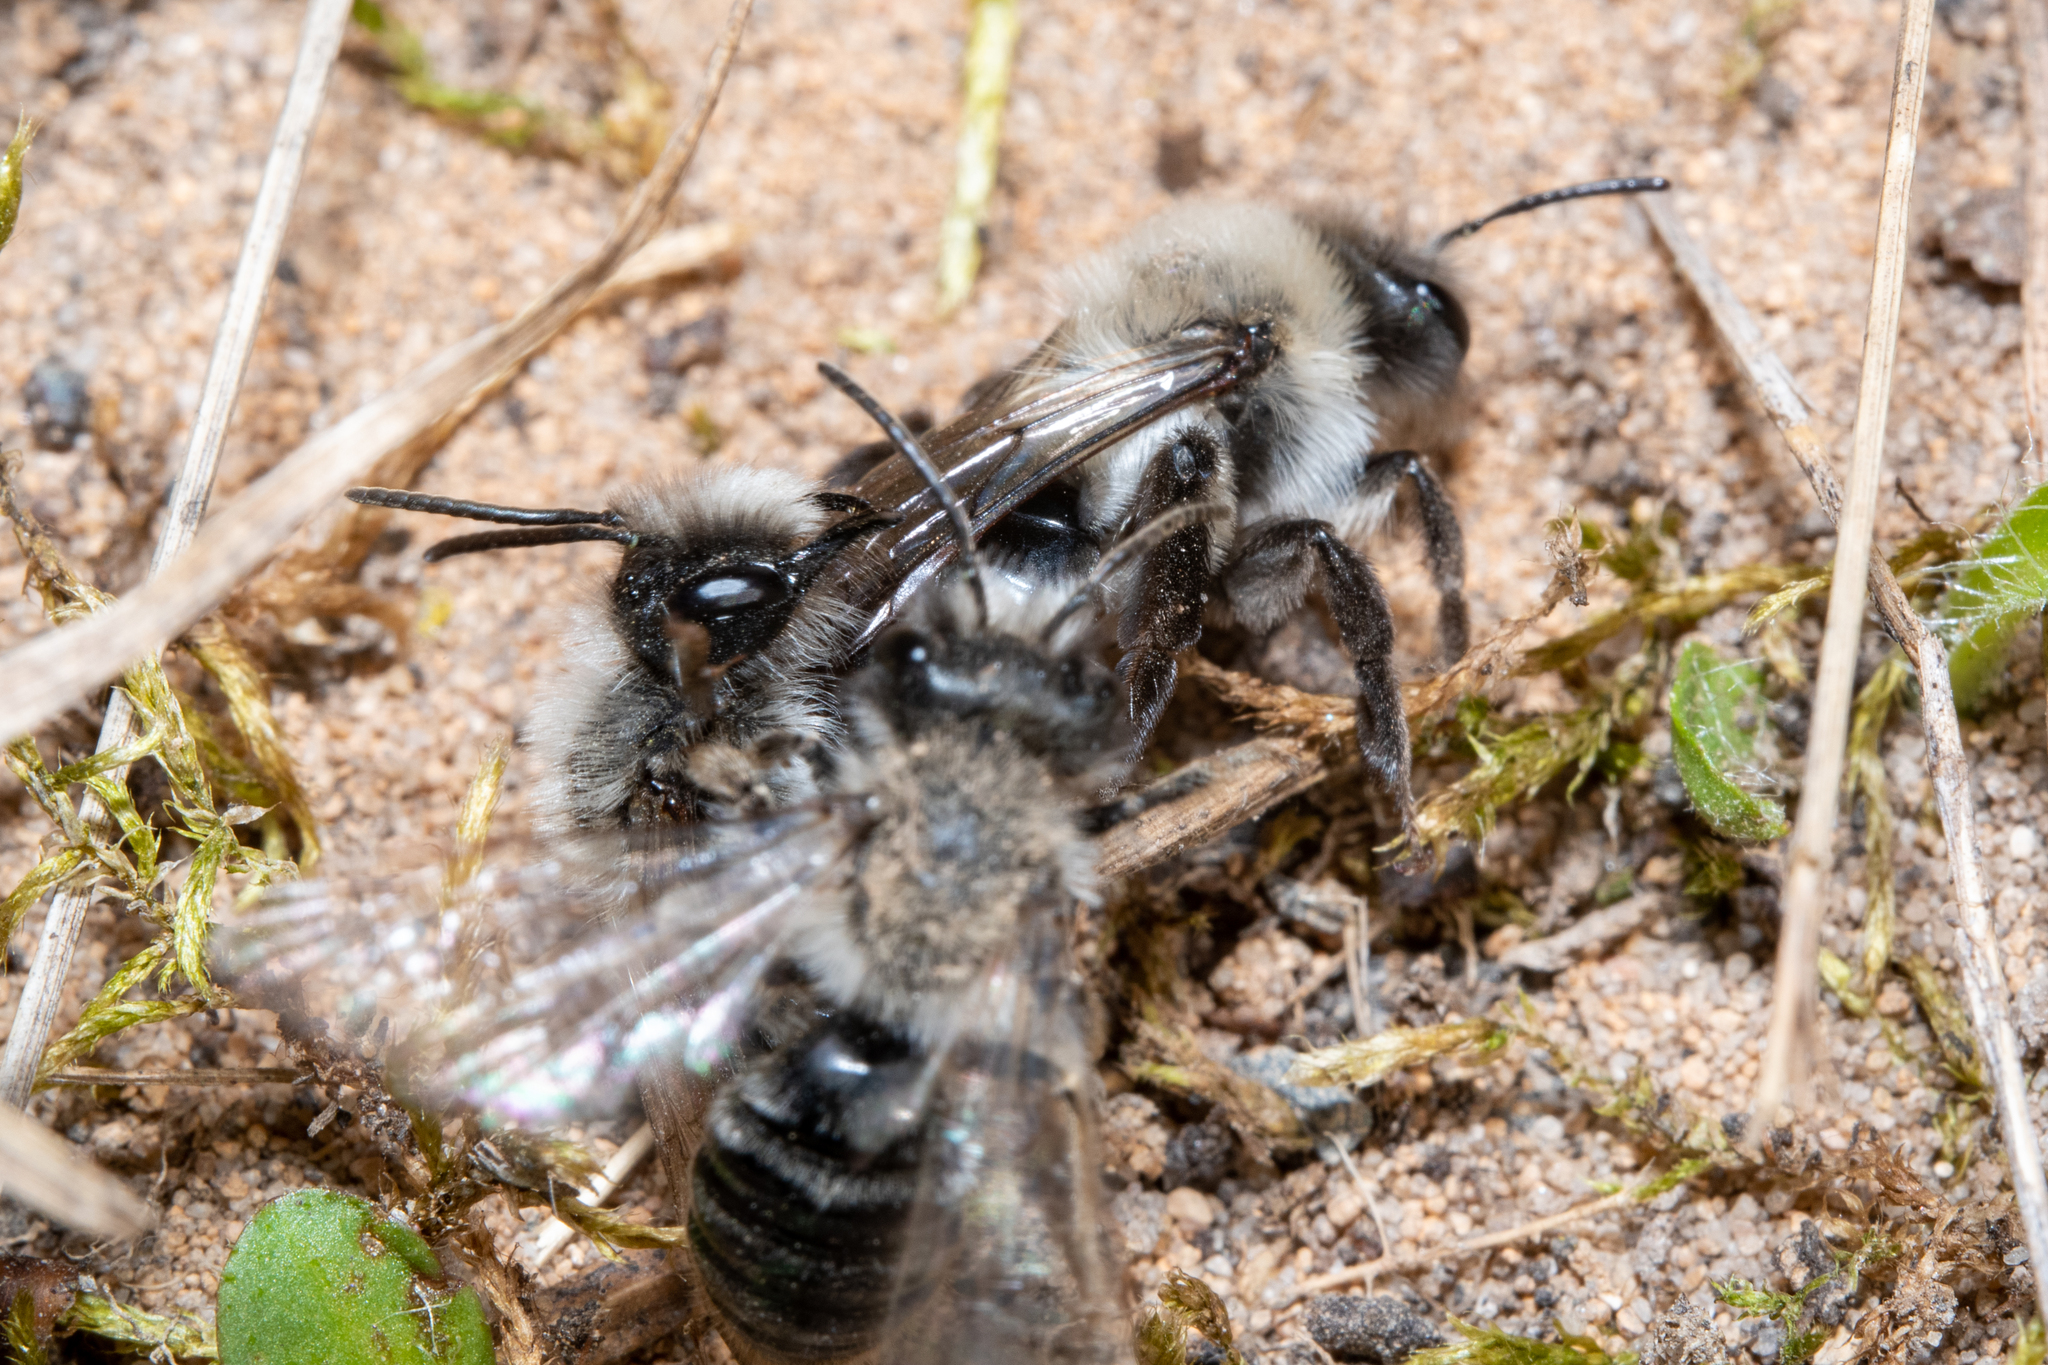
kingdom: Animalia
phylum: Arthropoda
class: Insecta
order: Hymenoptera
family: Andrenidae
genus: Andrena
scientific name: Andrena vaga
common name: Grey-backed mining bee
